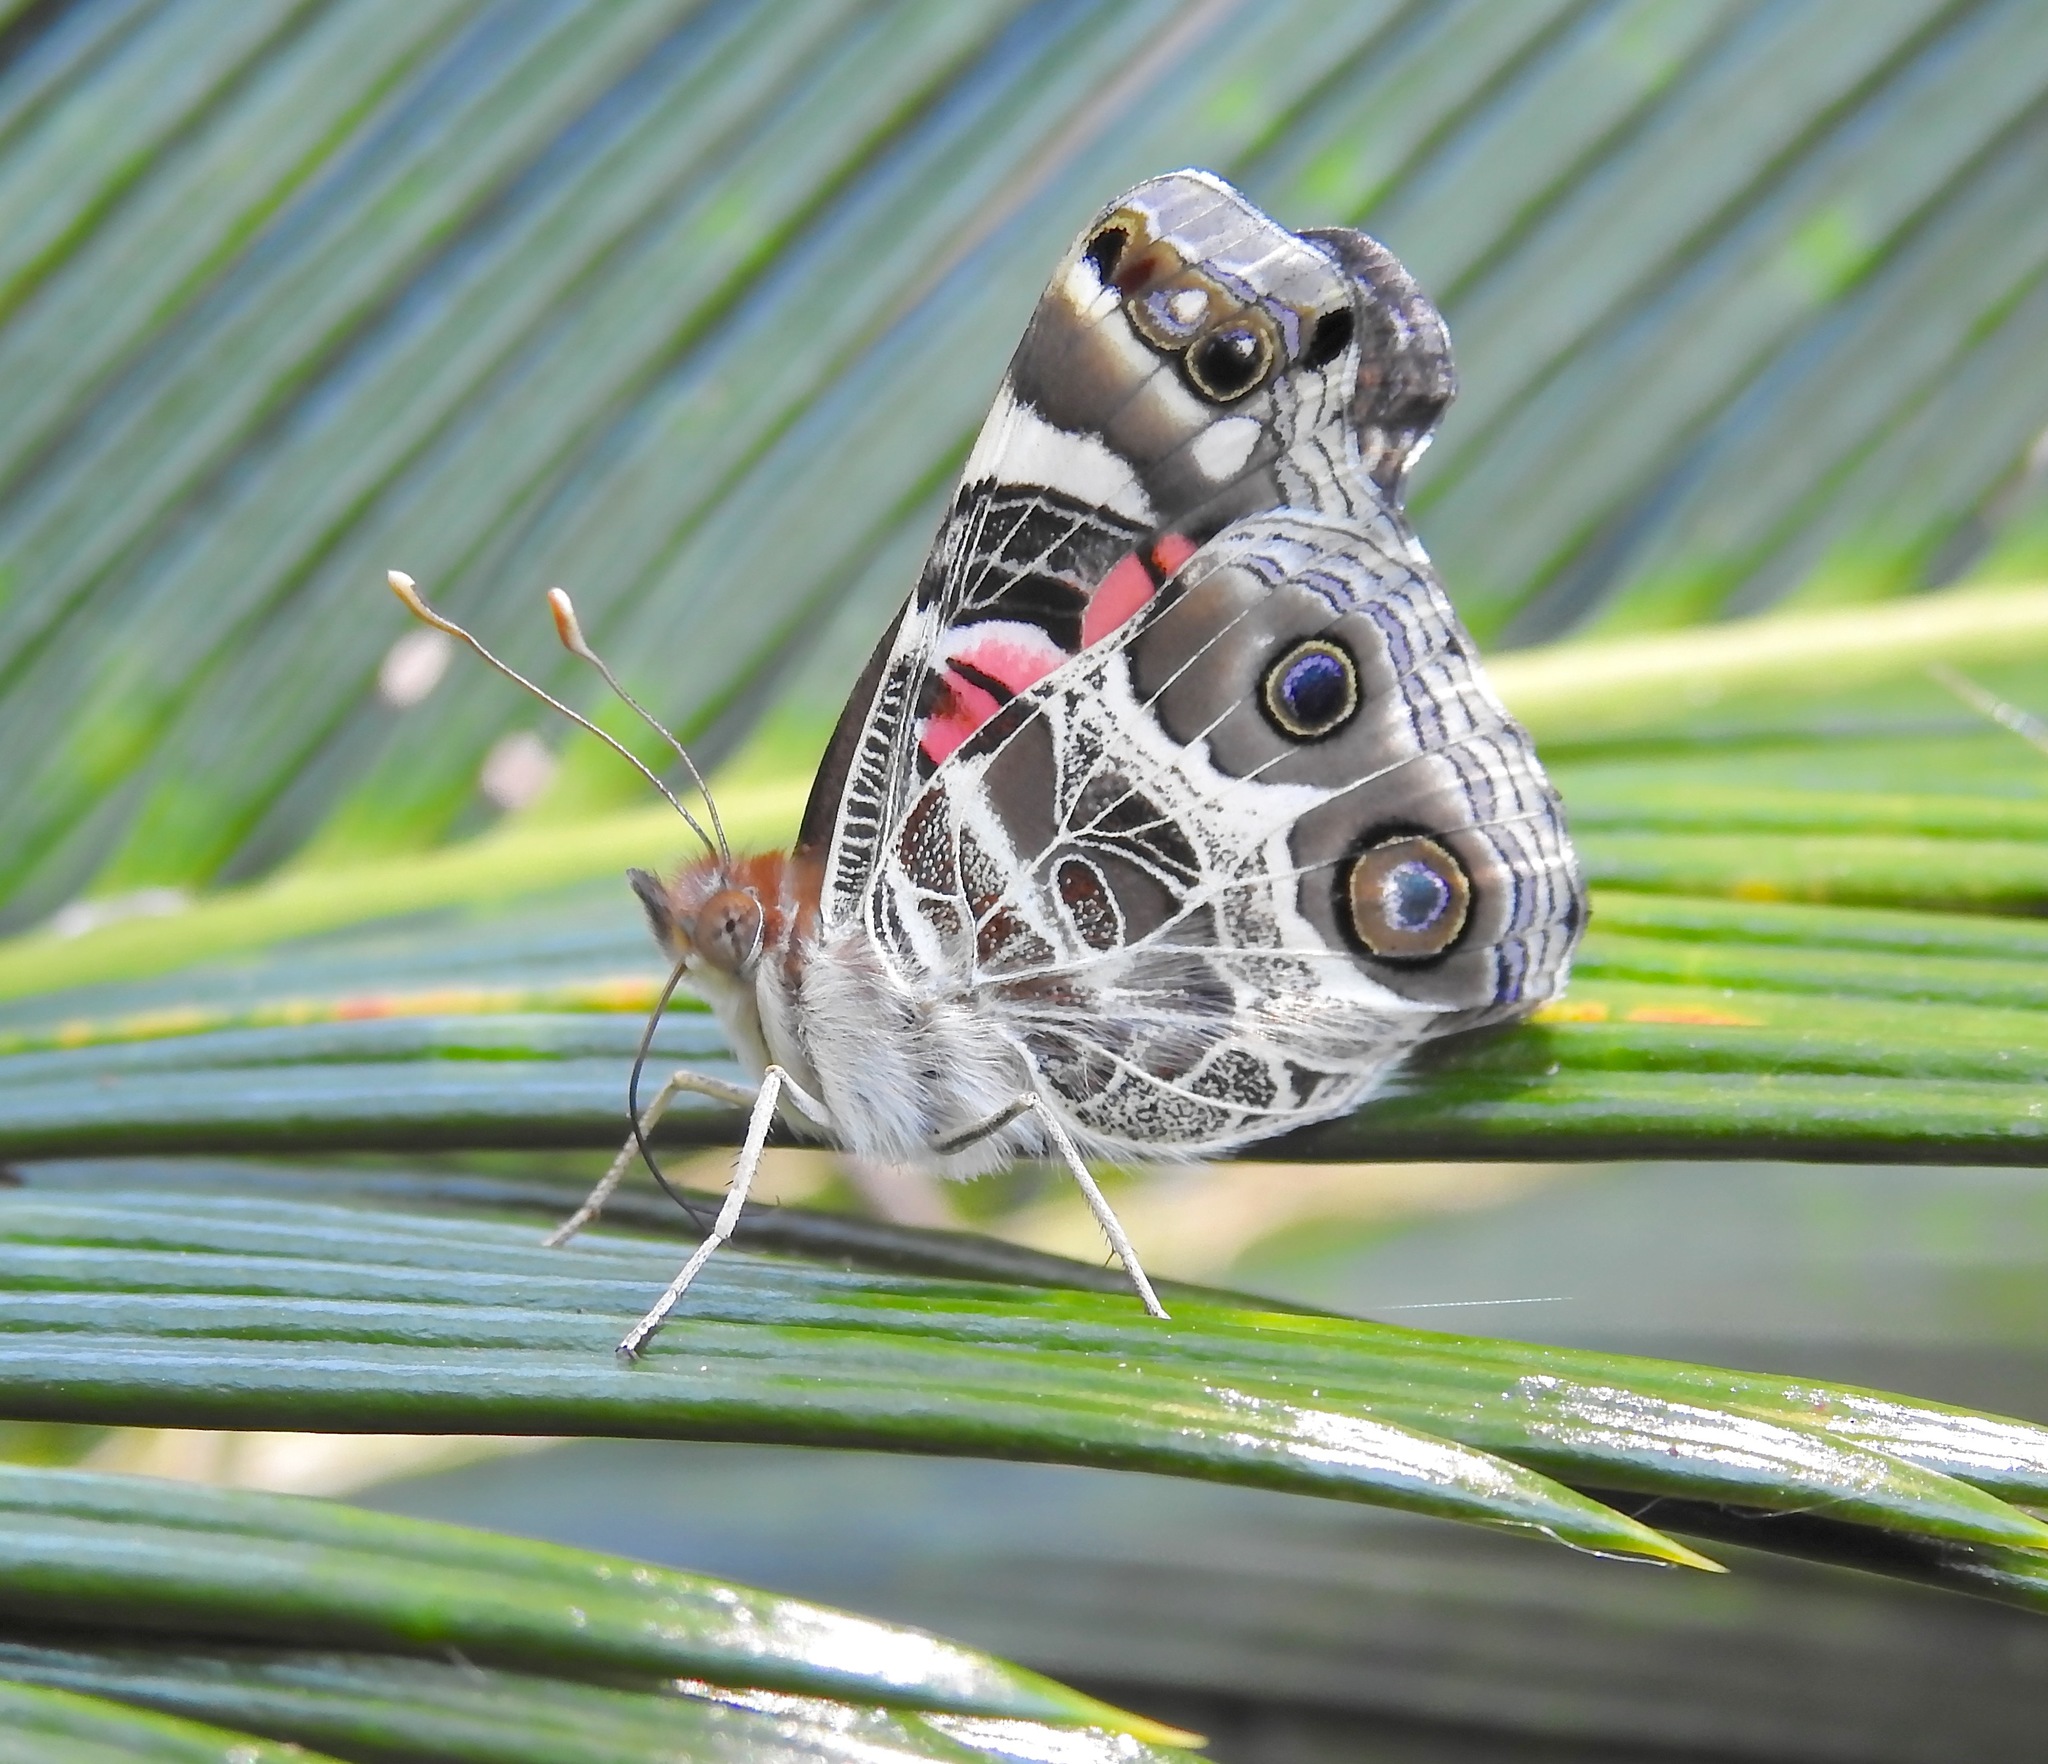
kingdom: Animalia
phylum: Arthropoda
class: Insecta
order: Lepidoptera
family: Nymphalidae
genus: Vanessa
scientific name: Vanessa virginiensis
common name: American lady
